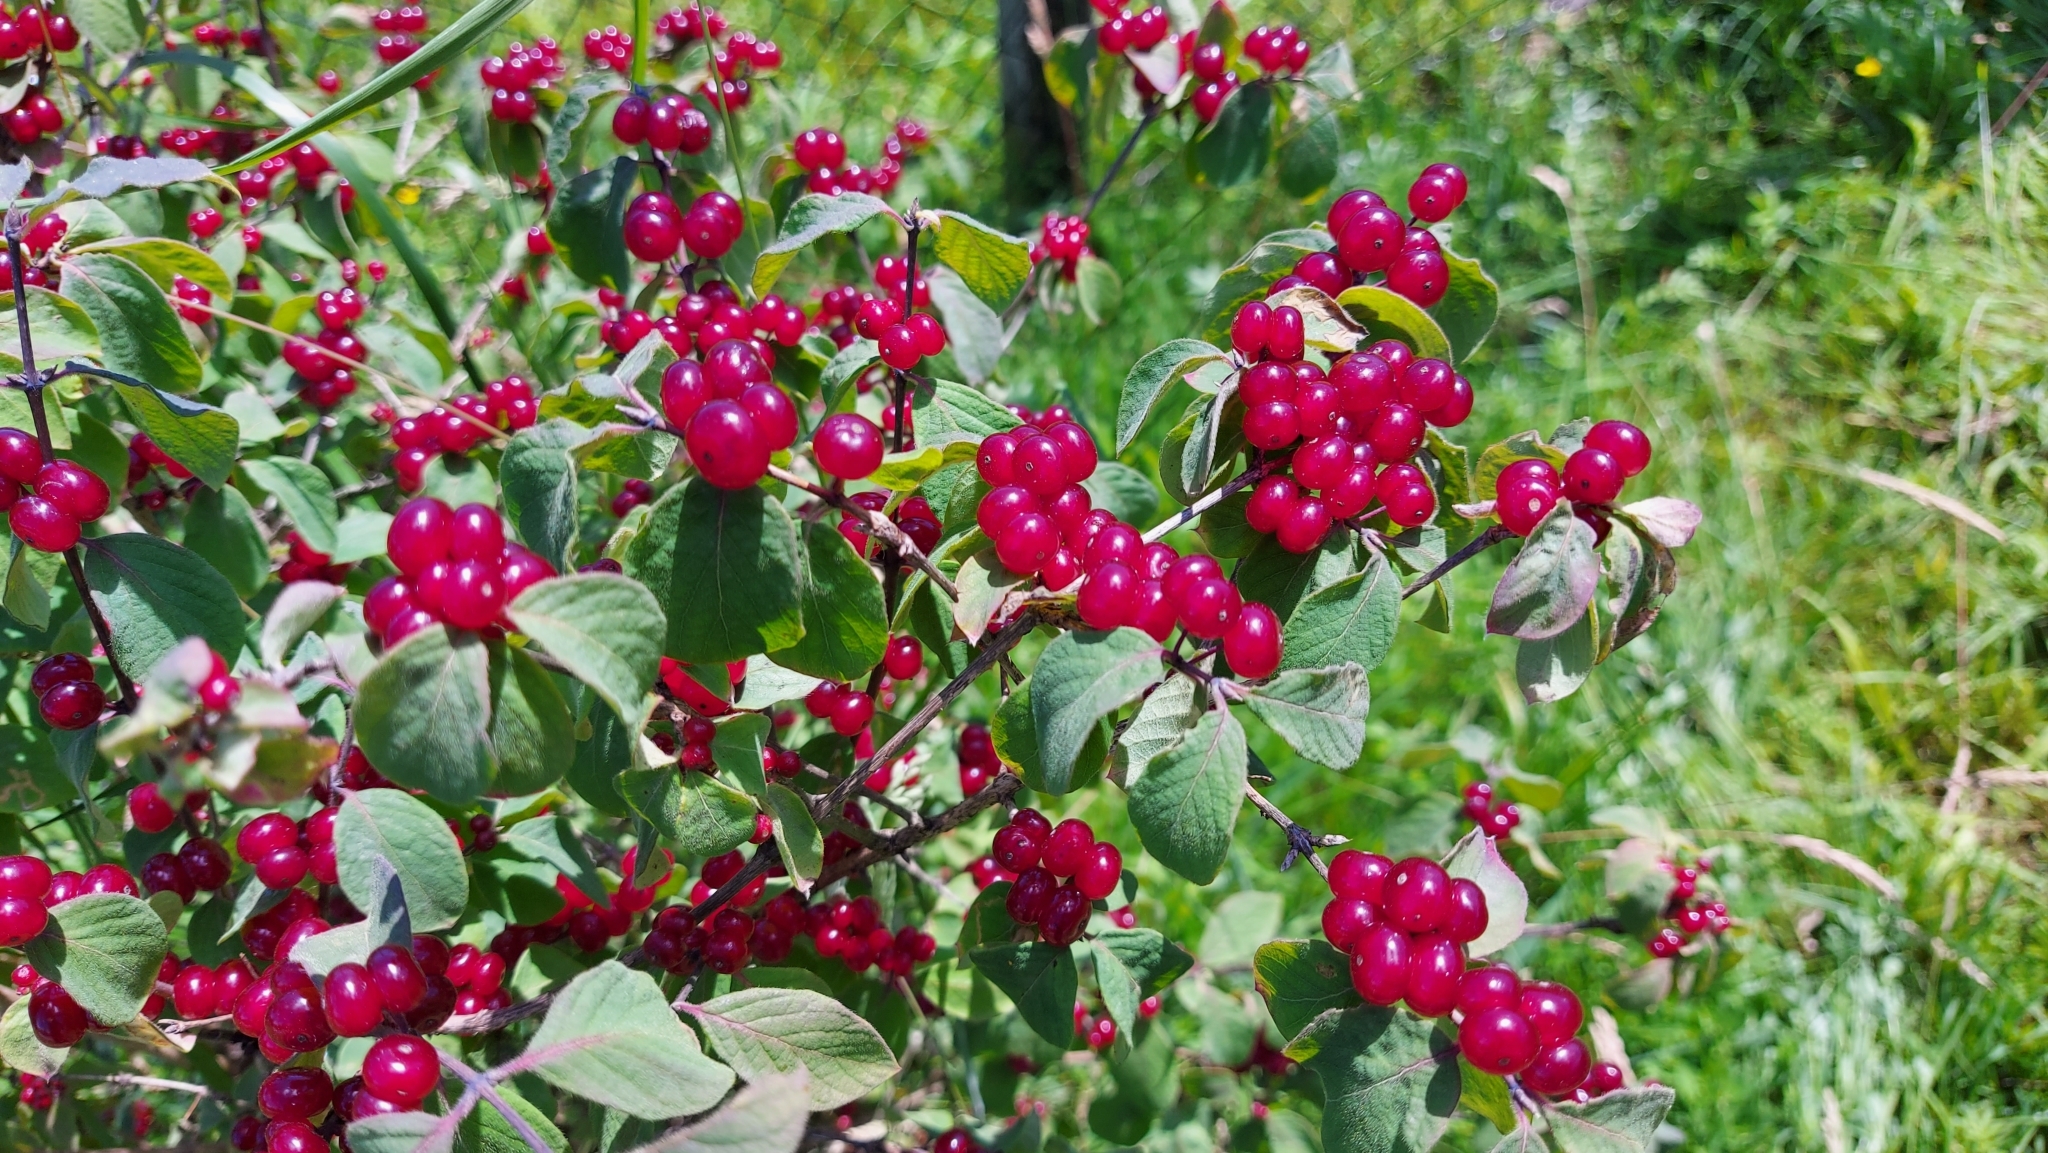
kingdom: Plantae
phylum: Tracheophyta
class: Magnoliopsida
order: Dipsacales
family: Caprifoliaceae
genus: Lonicera
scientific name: Lonicera xylosteum
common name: Fly honeysuckle
